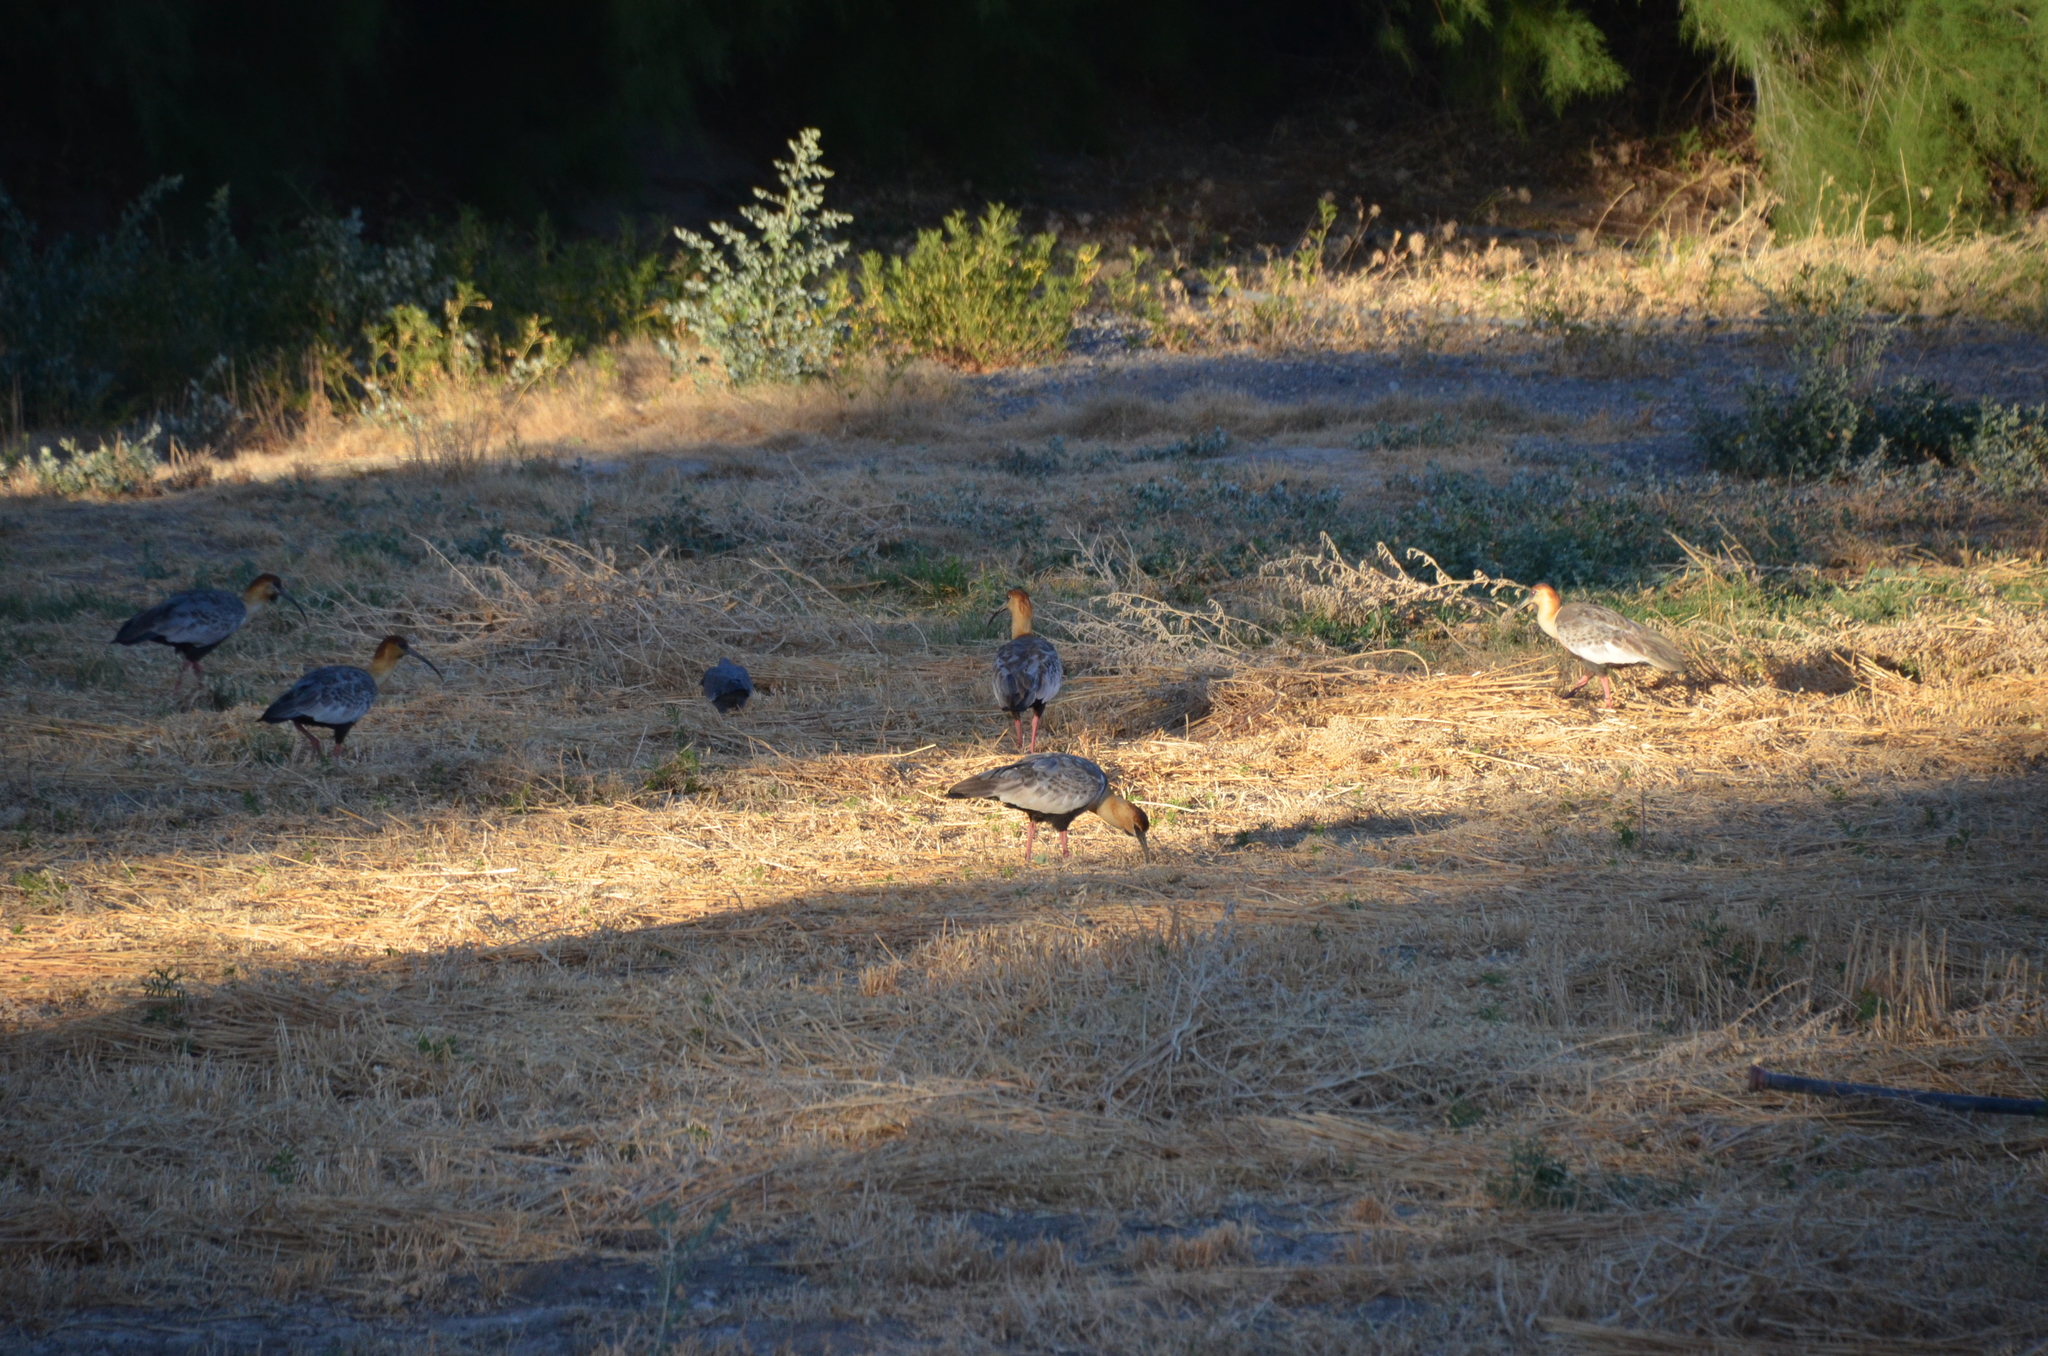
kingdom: Animalia
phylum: Chordata
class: Aves
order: Pelecaniformes
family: Threskiornithidae
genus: Theristicus
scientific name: Theristicus melanopis
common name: Black-faced ibis
